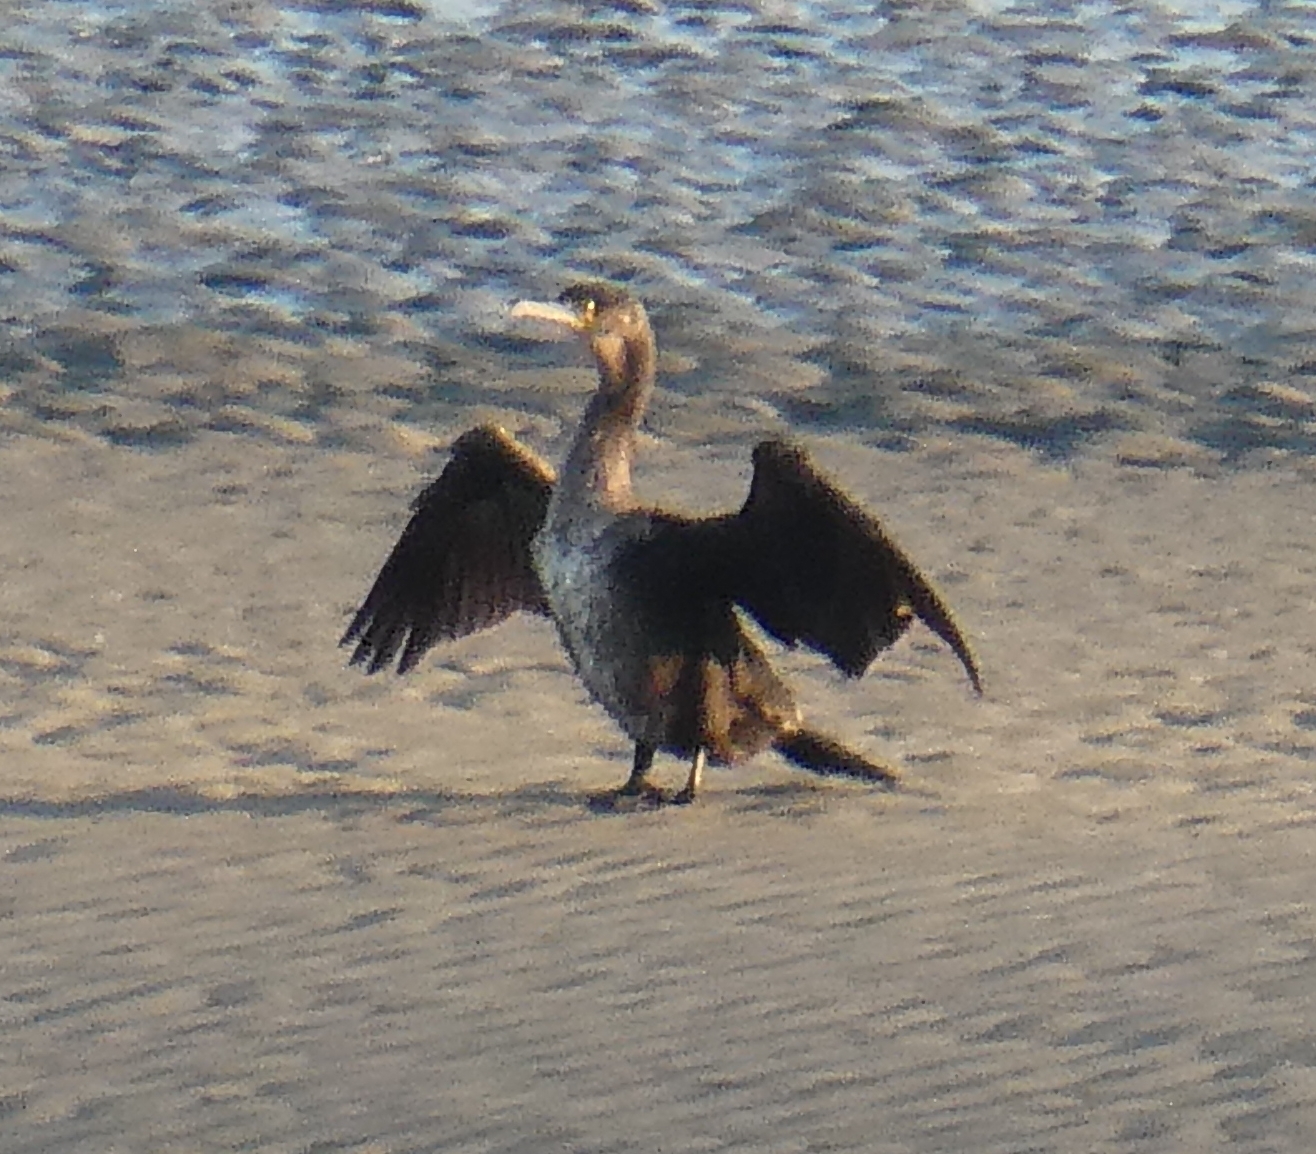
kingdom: Animalia
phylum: Chordata
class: Aves
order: Suliformes
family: Phalacrocoracidae
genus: Phalacrocorax
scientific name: Phalacrocorax carbo
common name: Great cormorant
